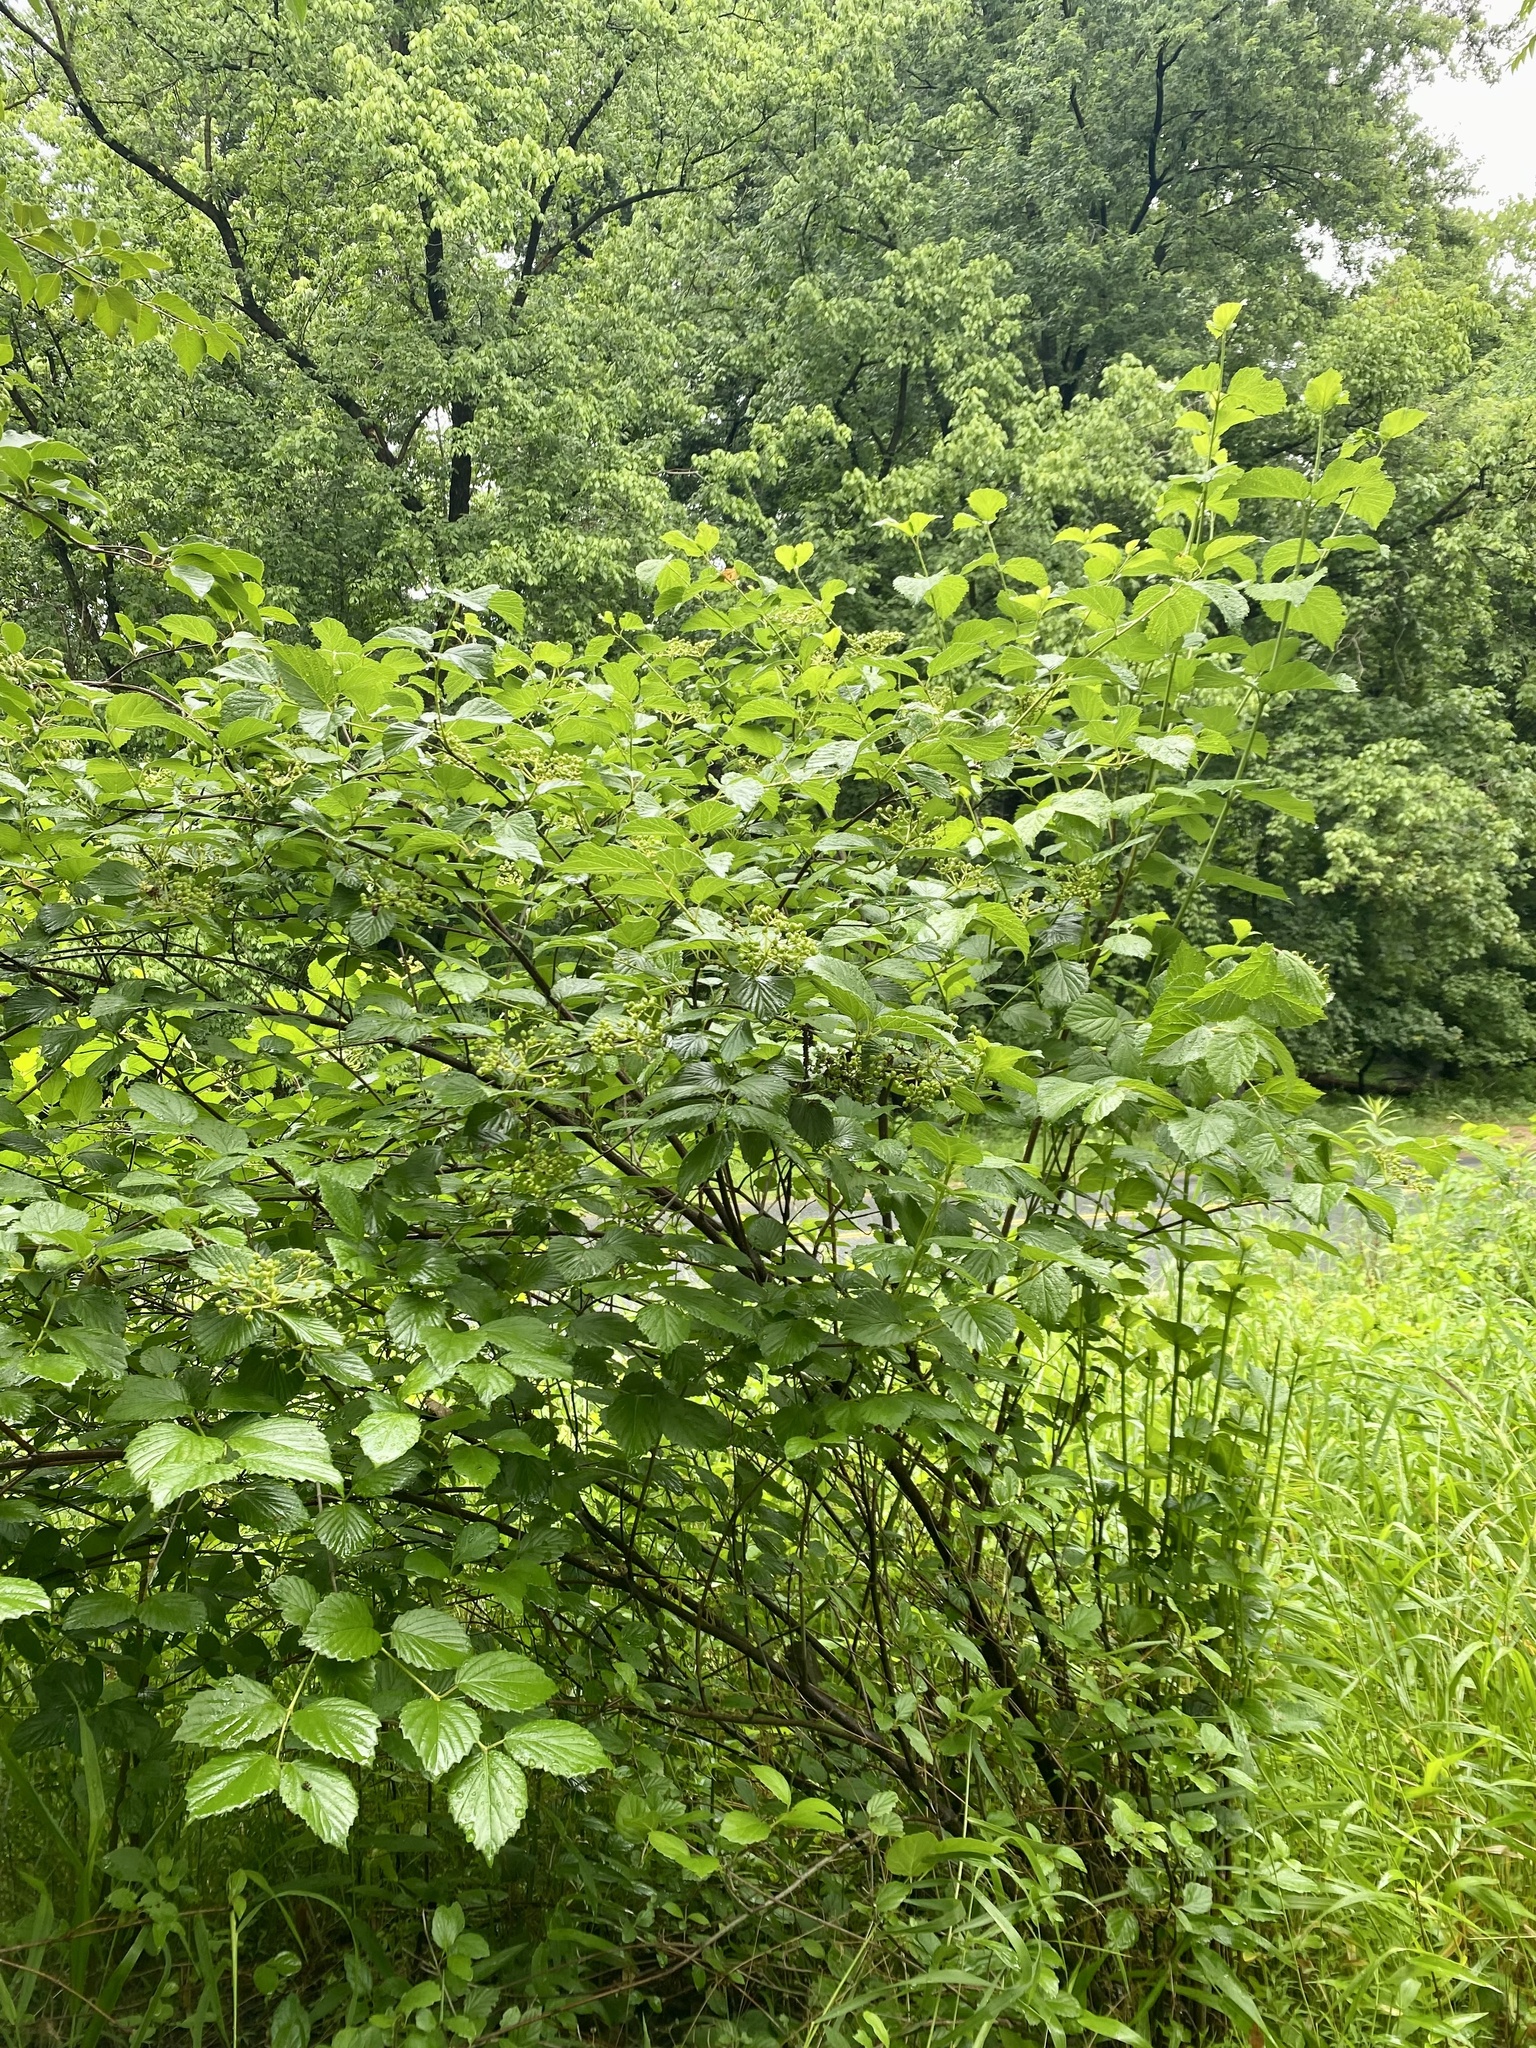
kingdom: Plantae
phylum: Tracheophyta
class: Magnoliopsida
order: Dipsacales
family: Viburnaceae
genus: Viburnum
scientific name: Viburnum dentatum
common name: Arrow-wood
